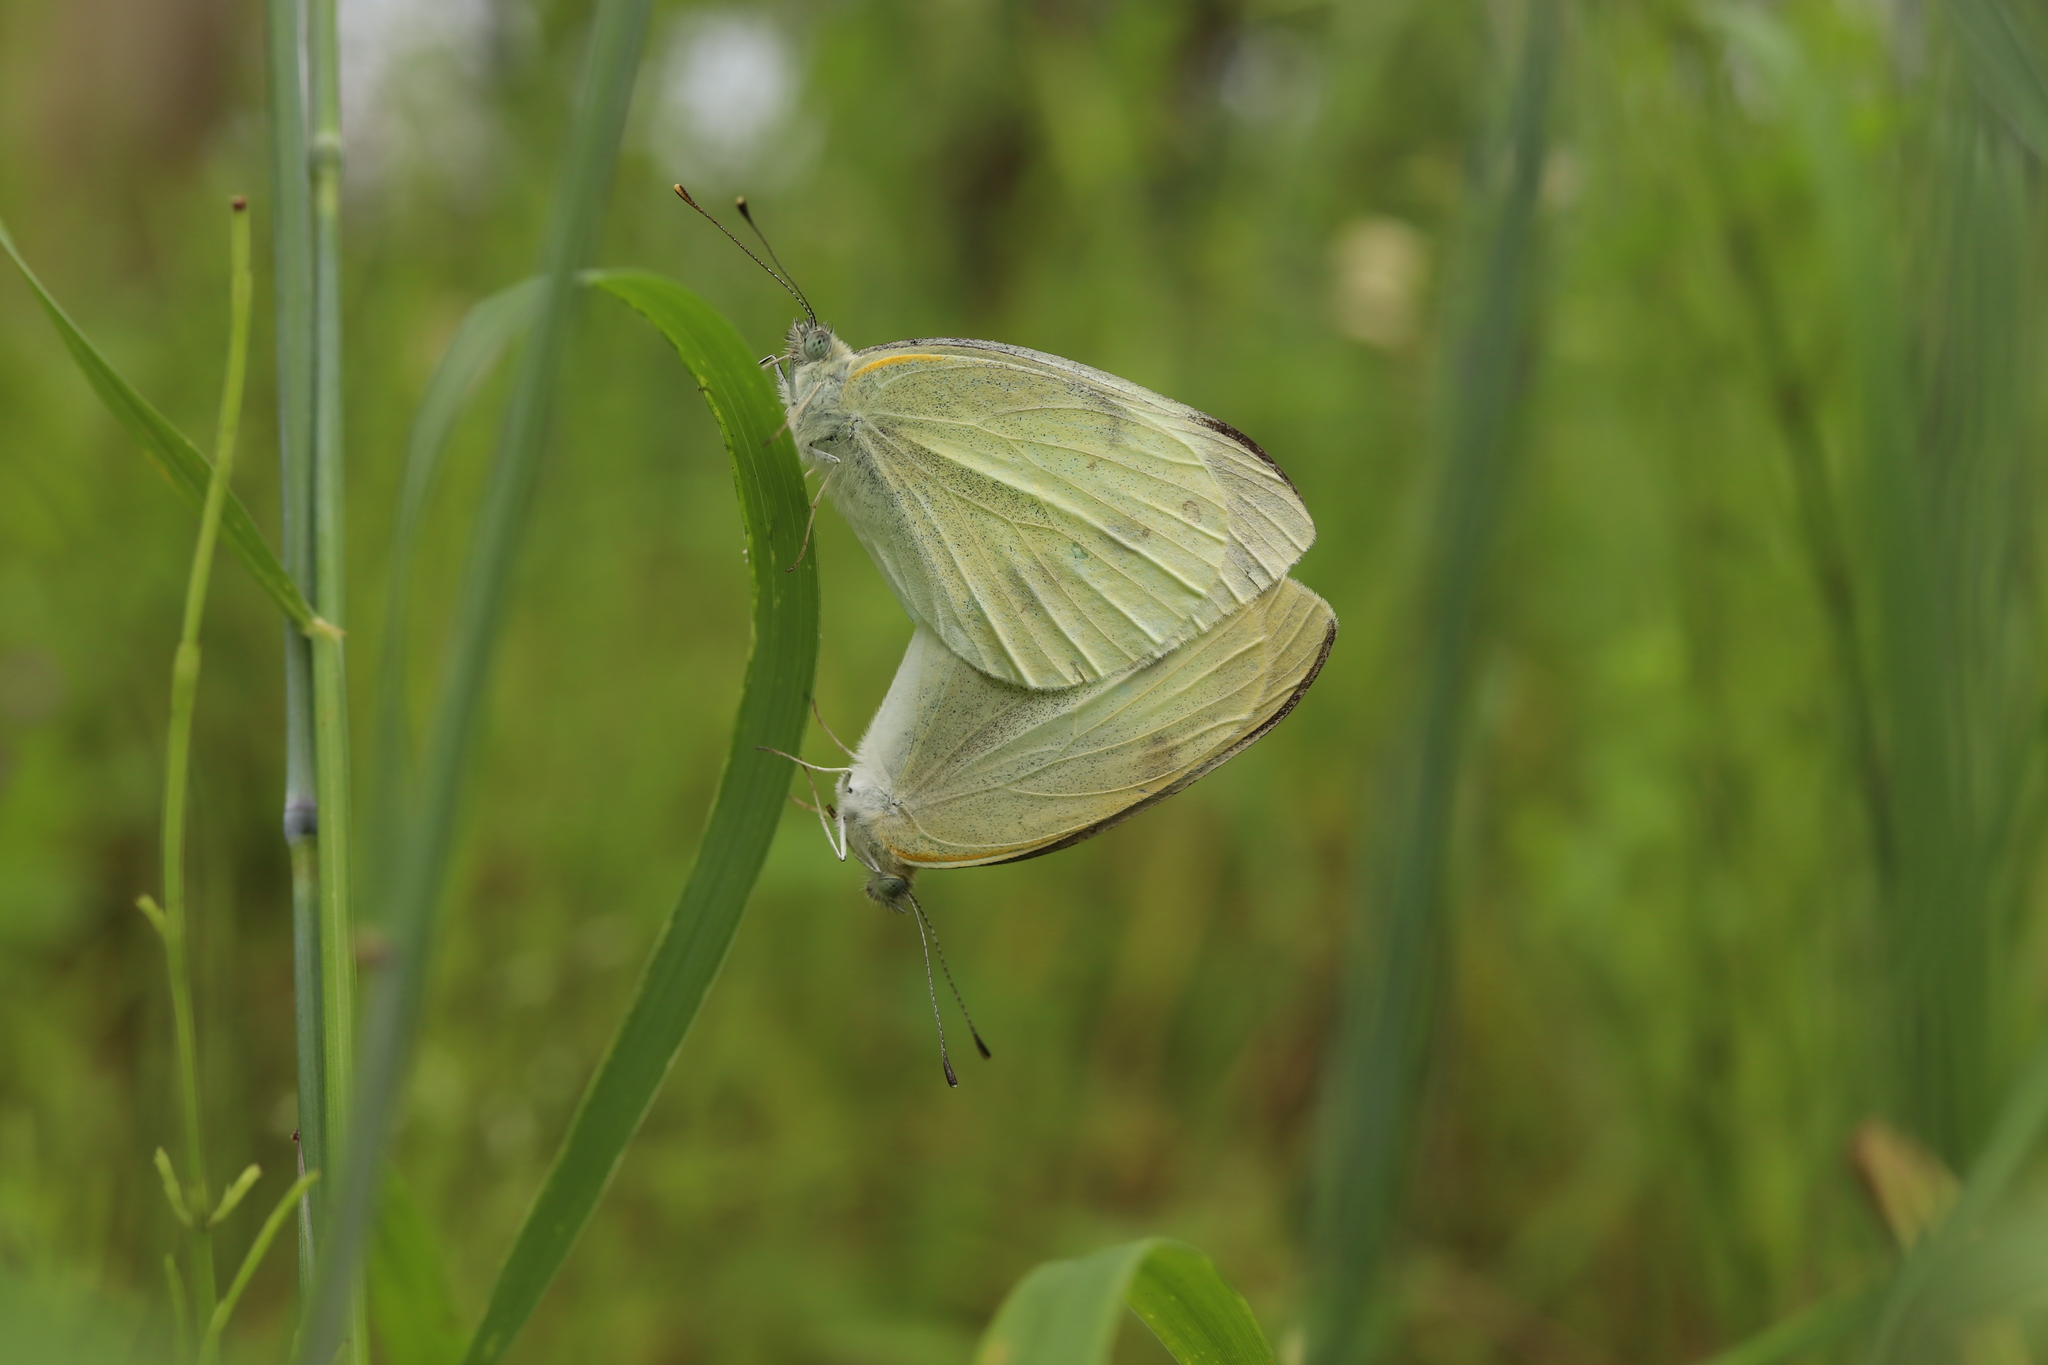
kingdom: Animalia
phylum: Arthropoda
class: Insecta
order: Lepidoptera
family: Pieridae
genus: Pieris
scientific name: Pieris rapae
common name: Small white
